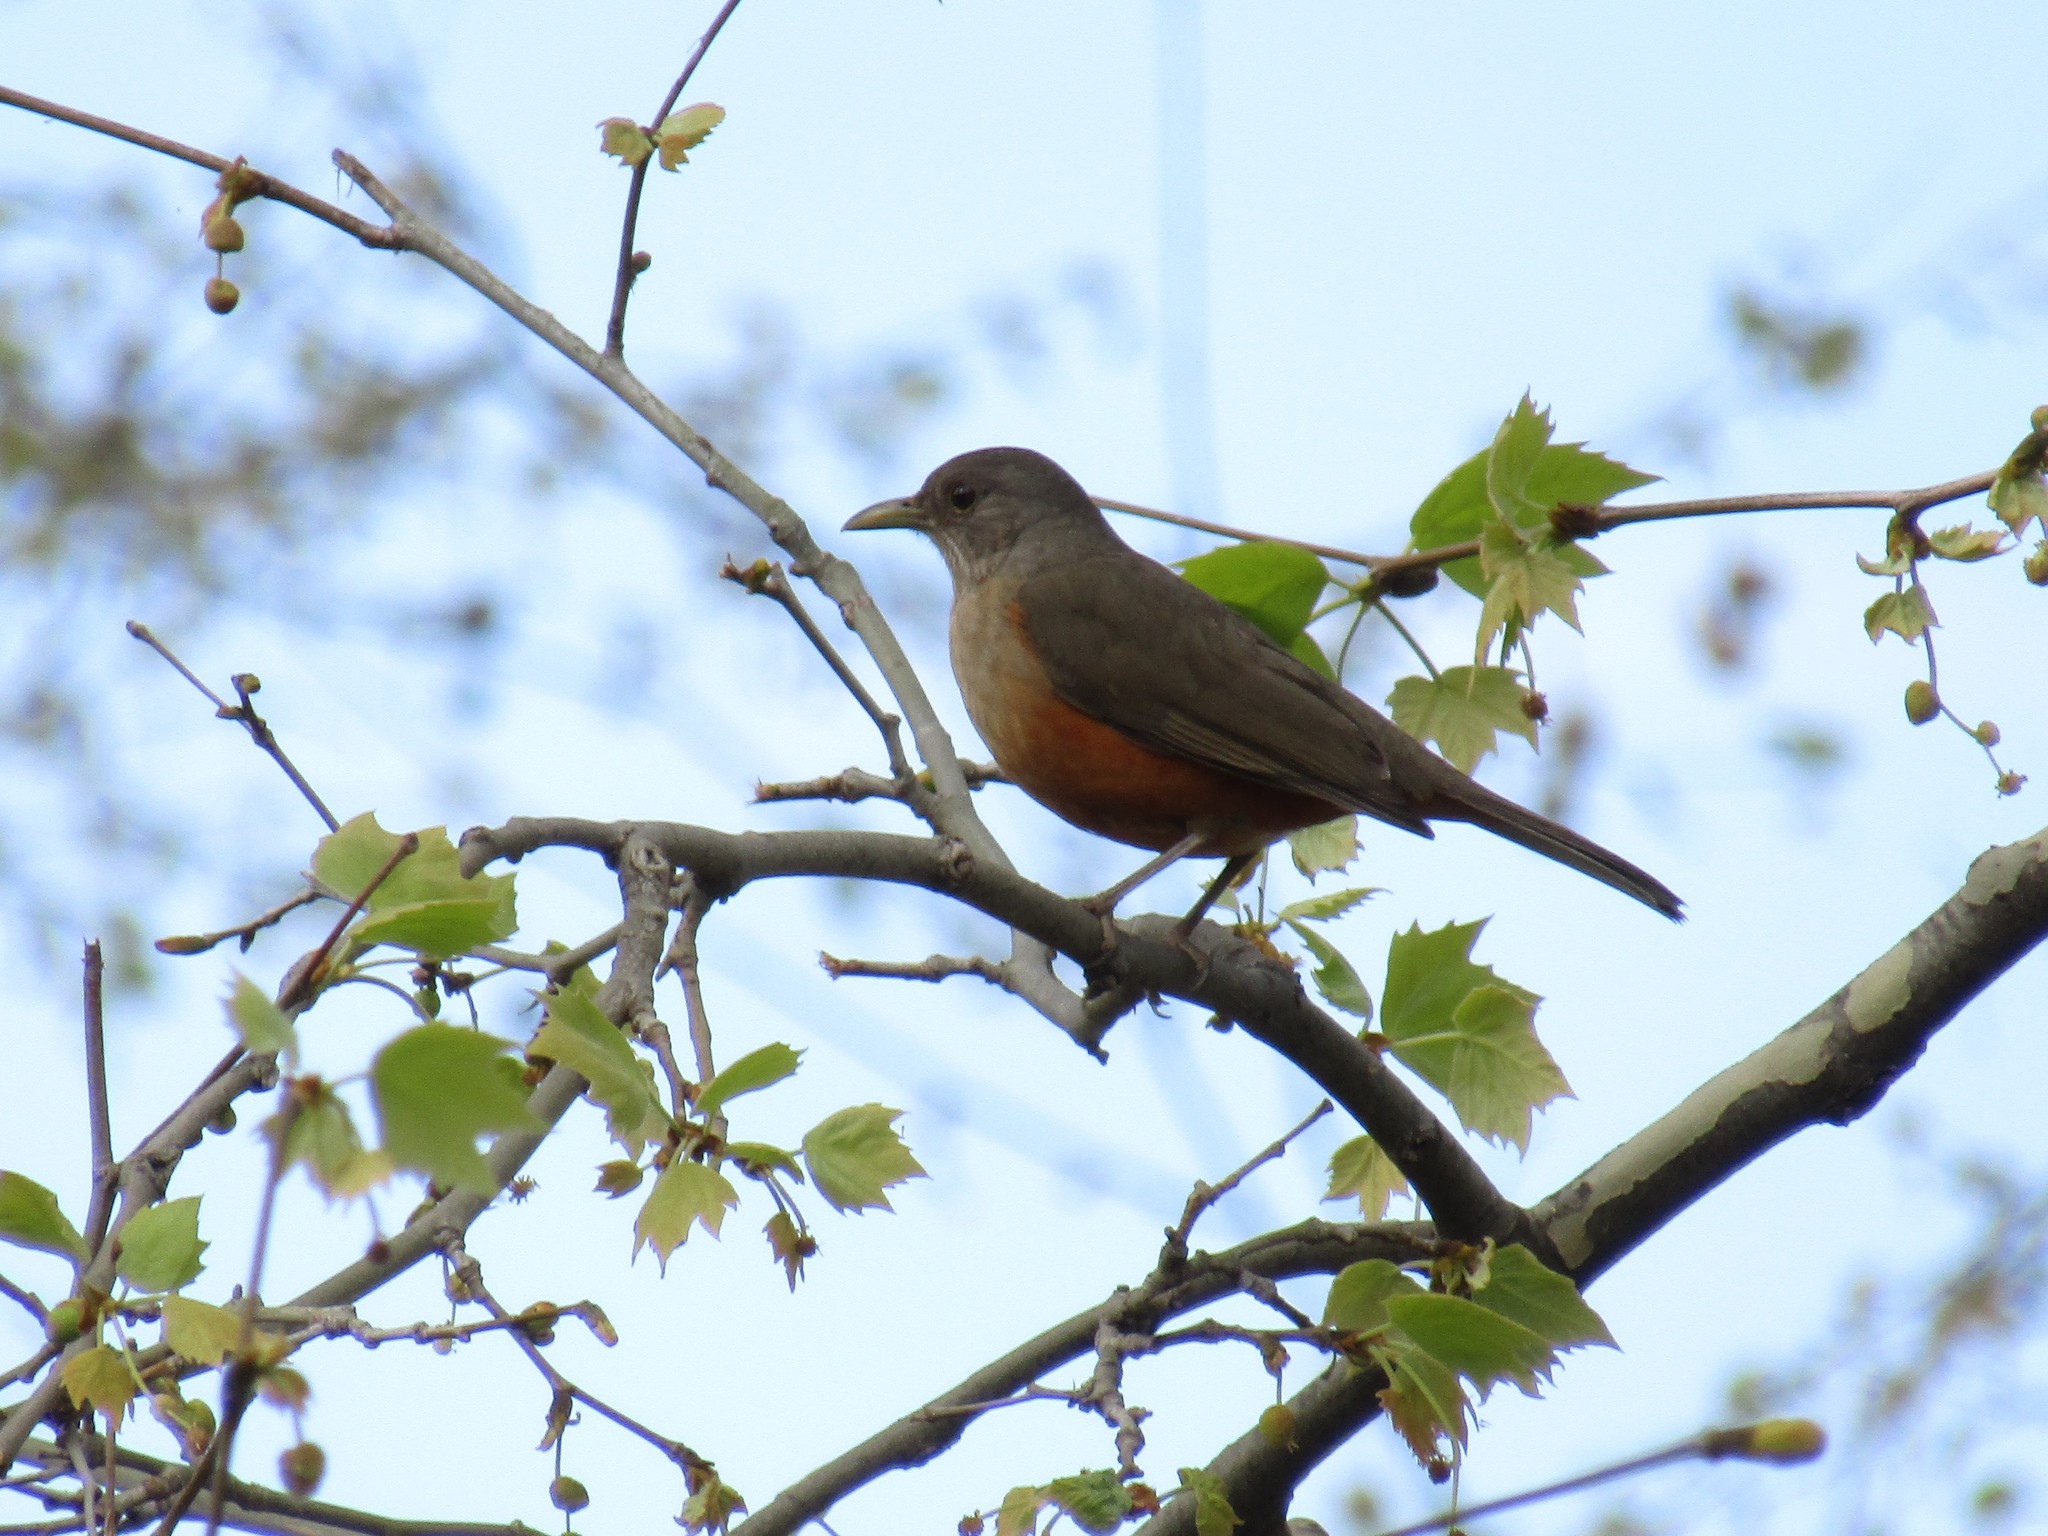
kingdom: Animalia
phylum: Chordata
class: Aves
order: Passeriformes
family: Turdidae
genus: Turdus
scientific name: Turdus rufiventris
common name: Rufous-bellied thrush
